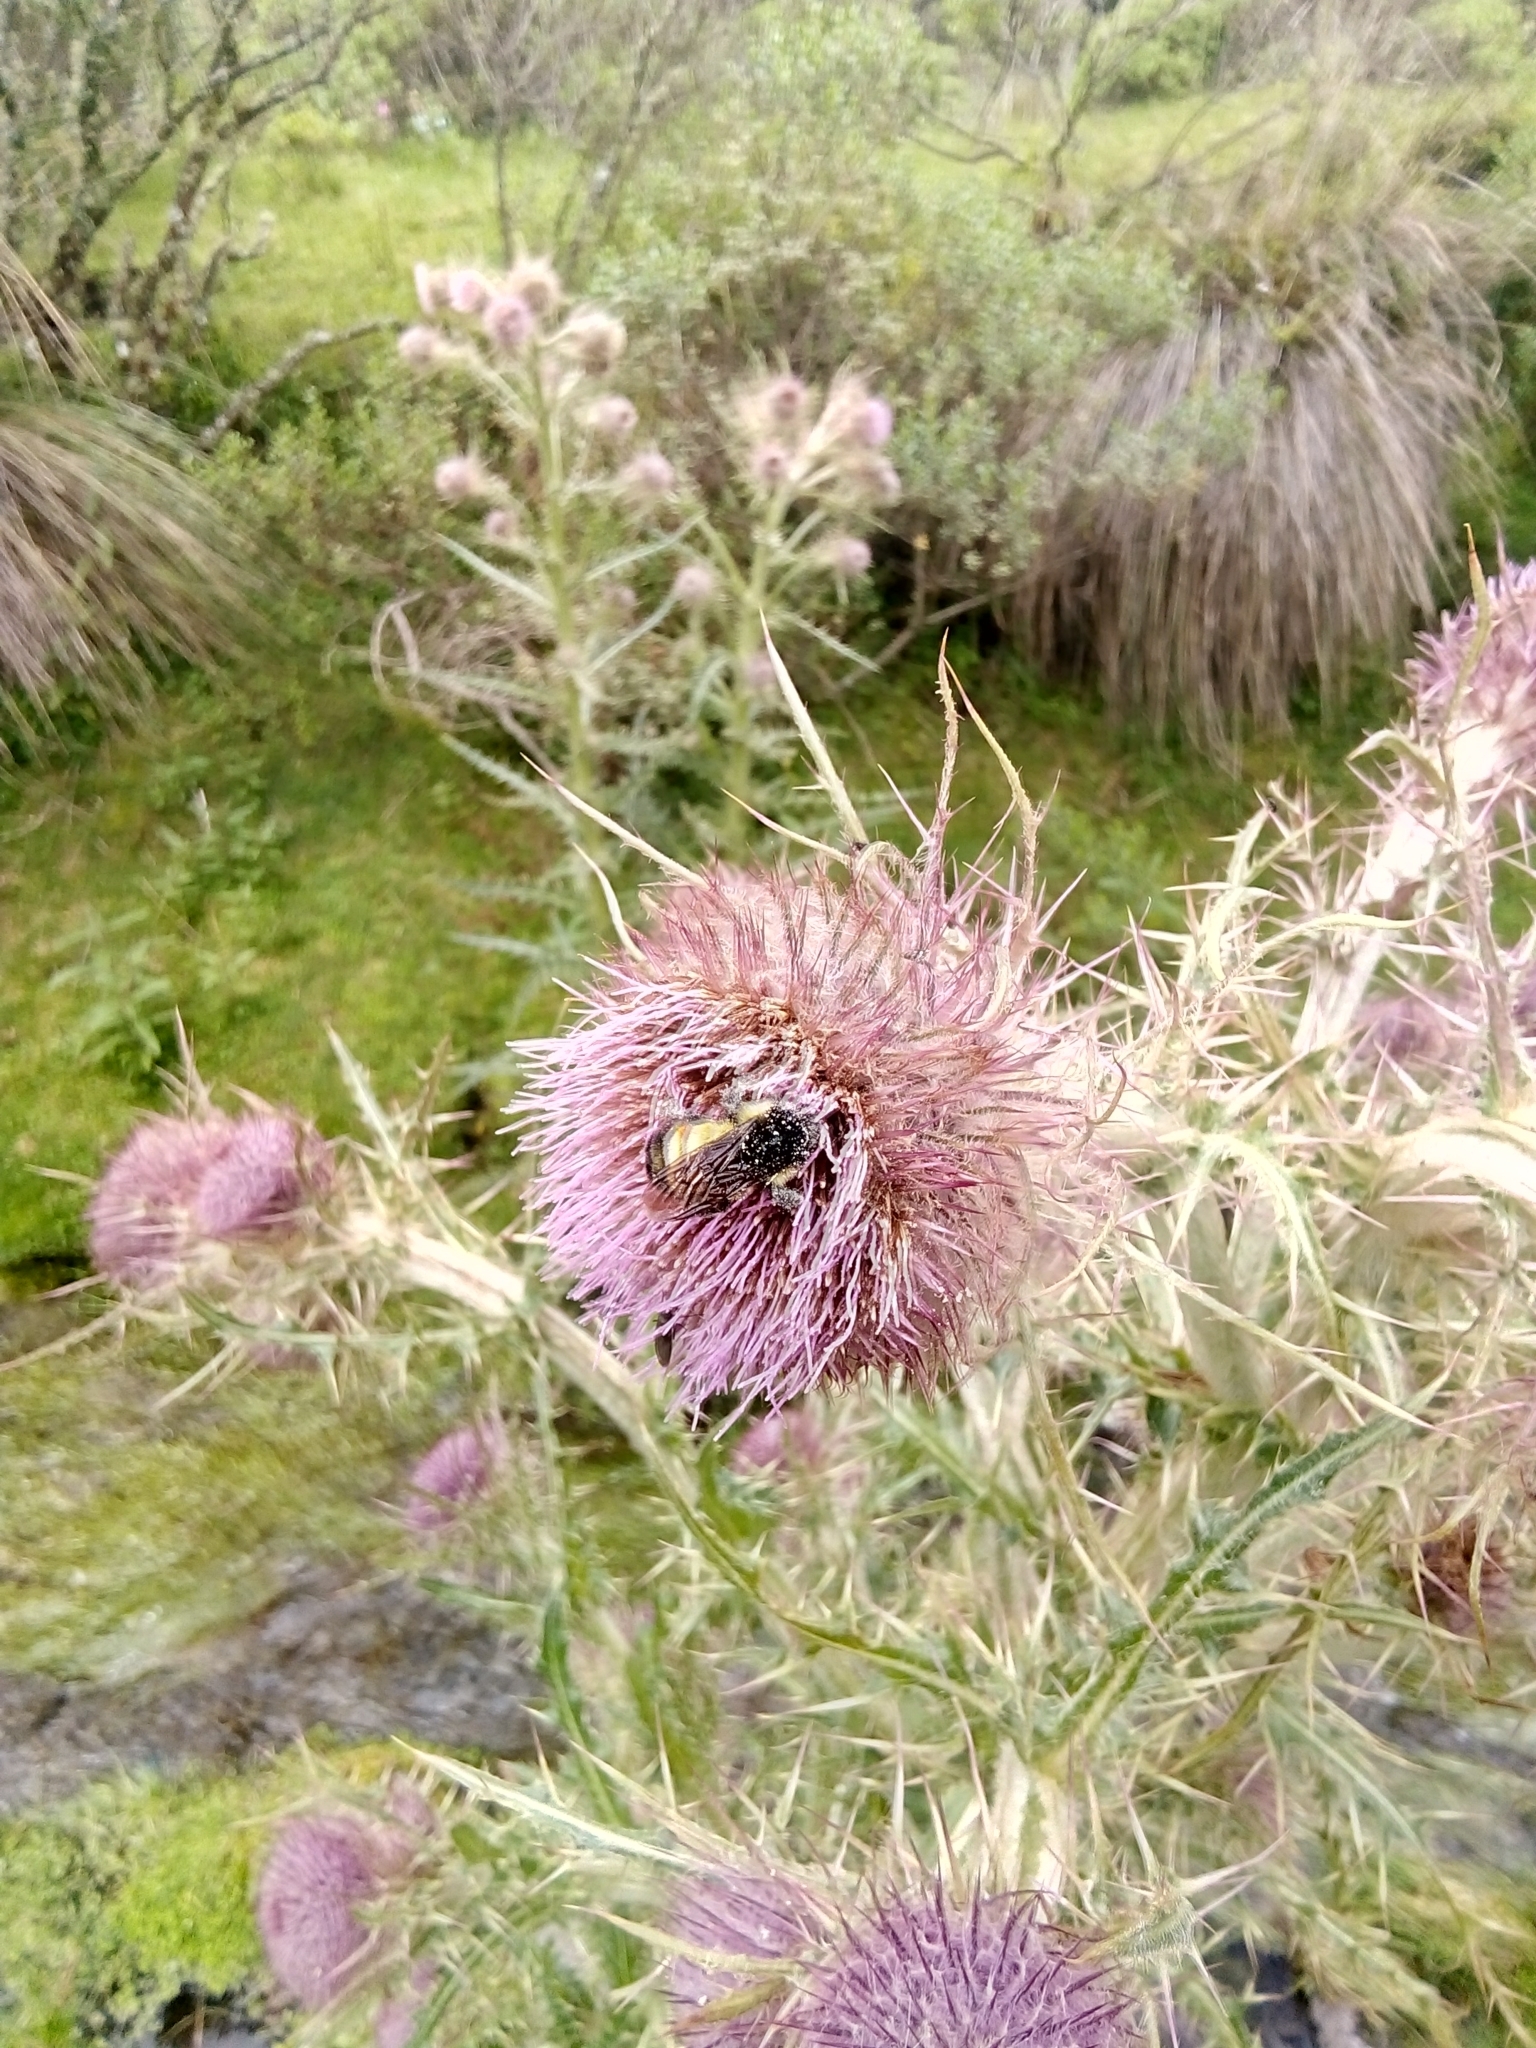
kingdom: Animalia
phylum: Arthropoda
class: Insecta
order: Hymenoptera
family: Apidae
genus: Bombus
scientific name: Bombus ephippiatus
